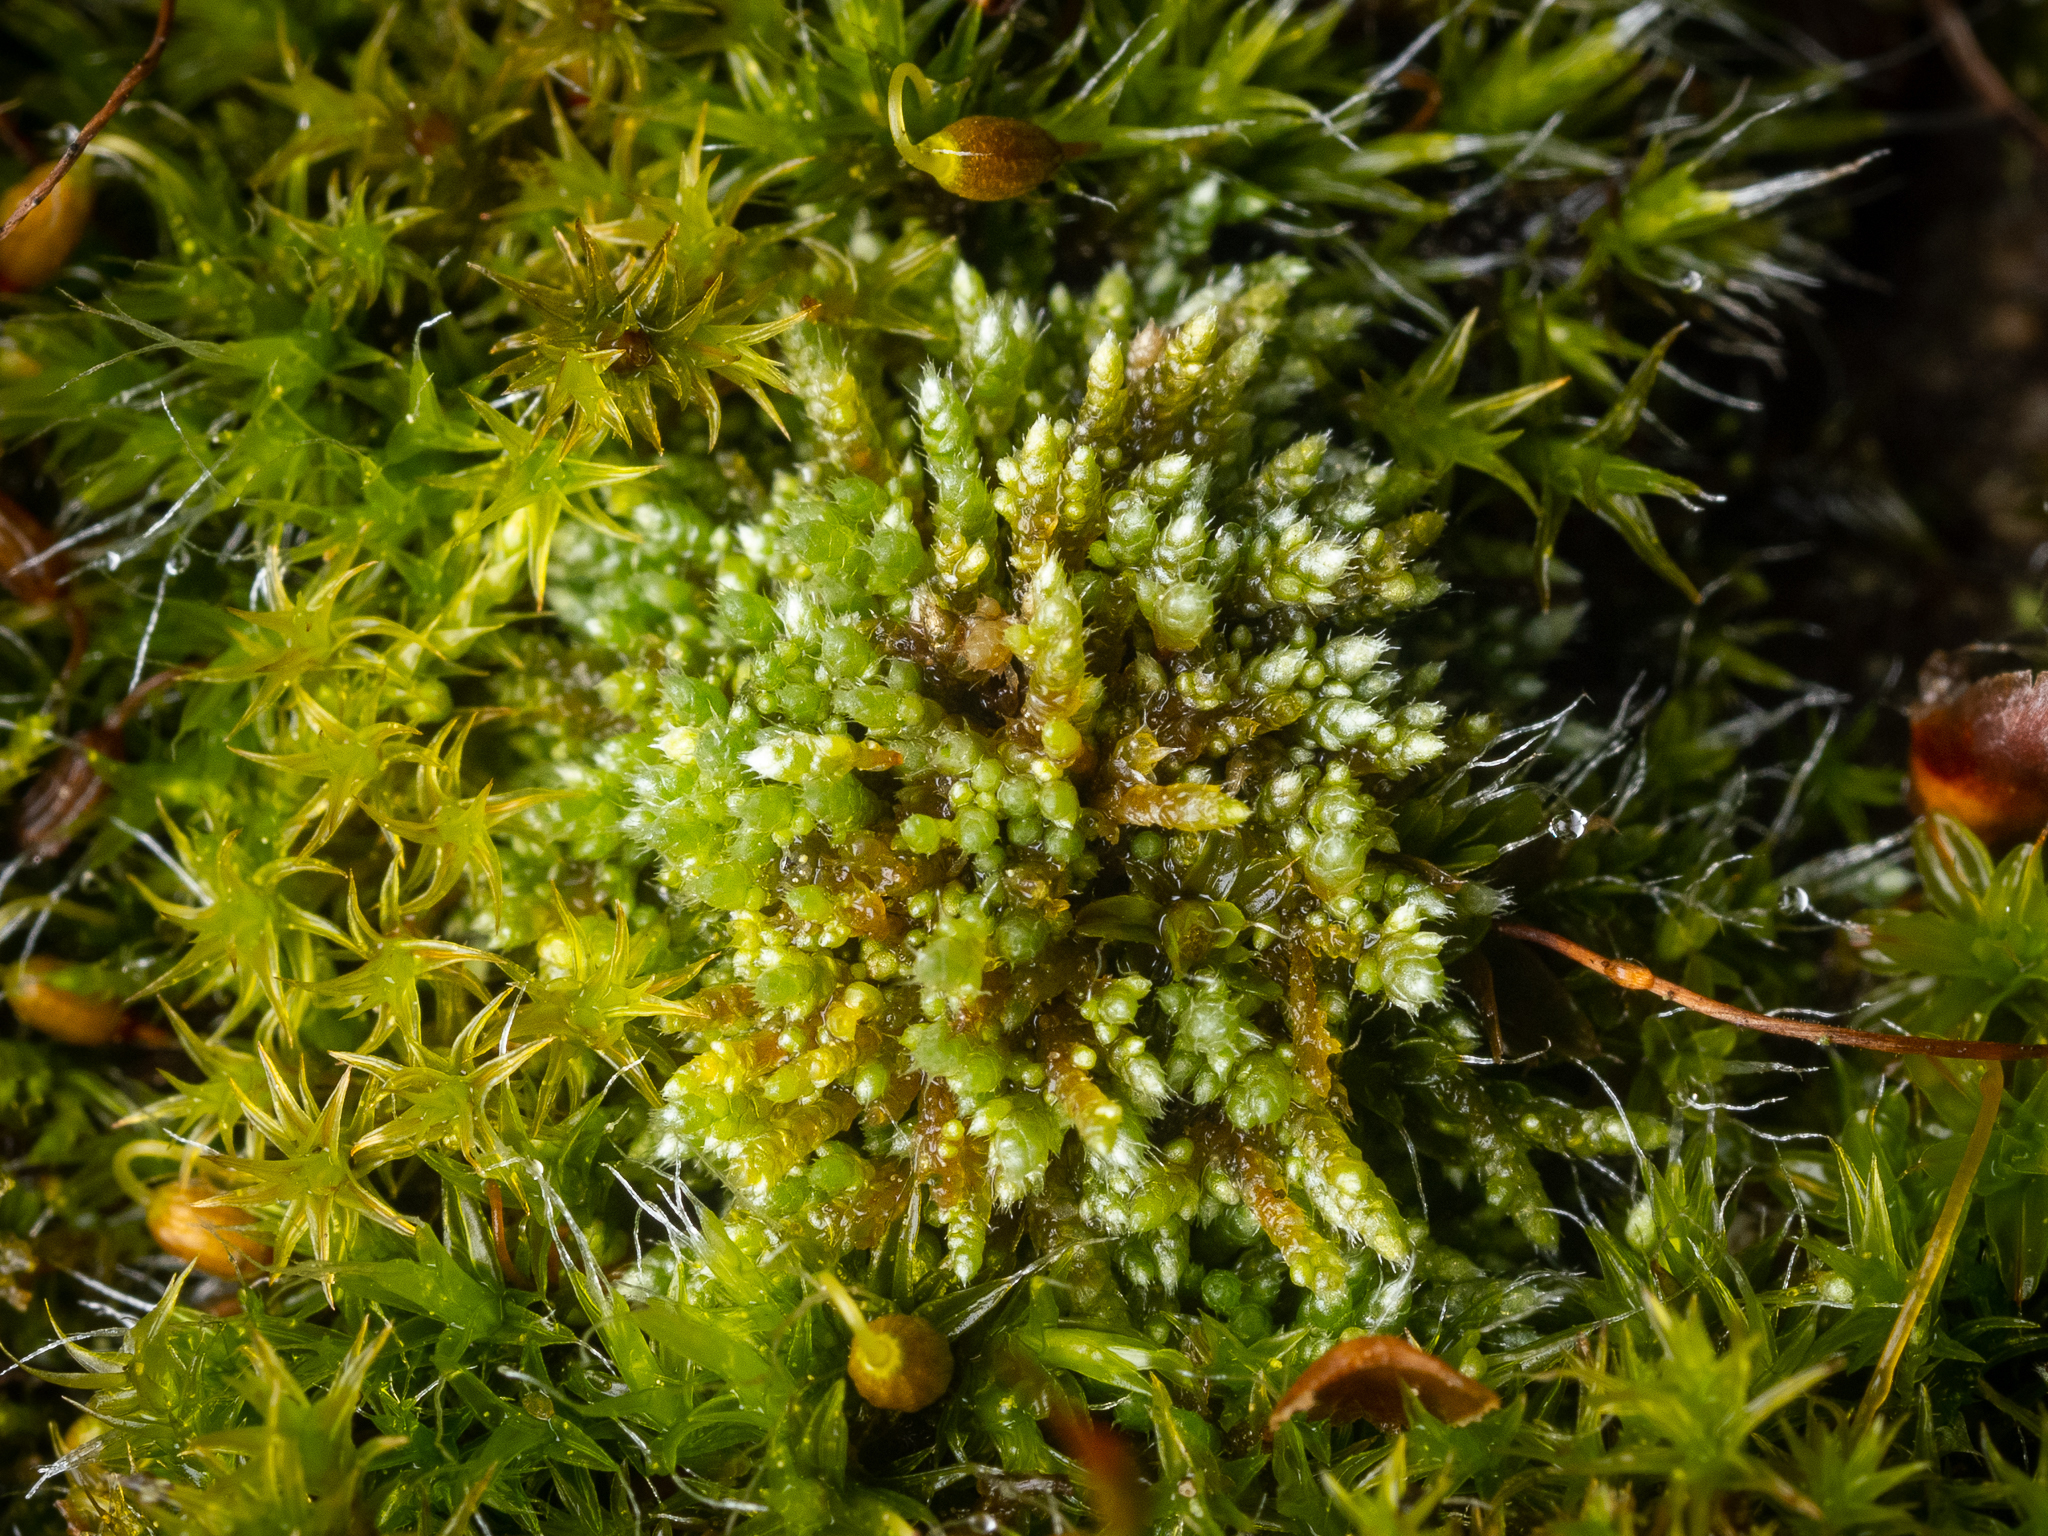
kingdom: Plantae
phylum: Bryophyta
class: Bryopsida
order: Bryales
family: Bryaceae
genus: Bryum
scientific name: Bryum argenteum
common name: Silver-moss
